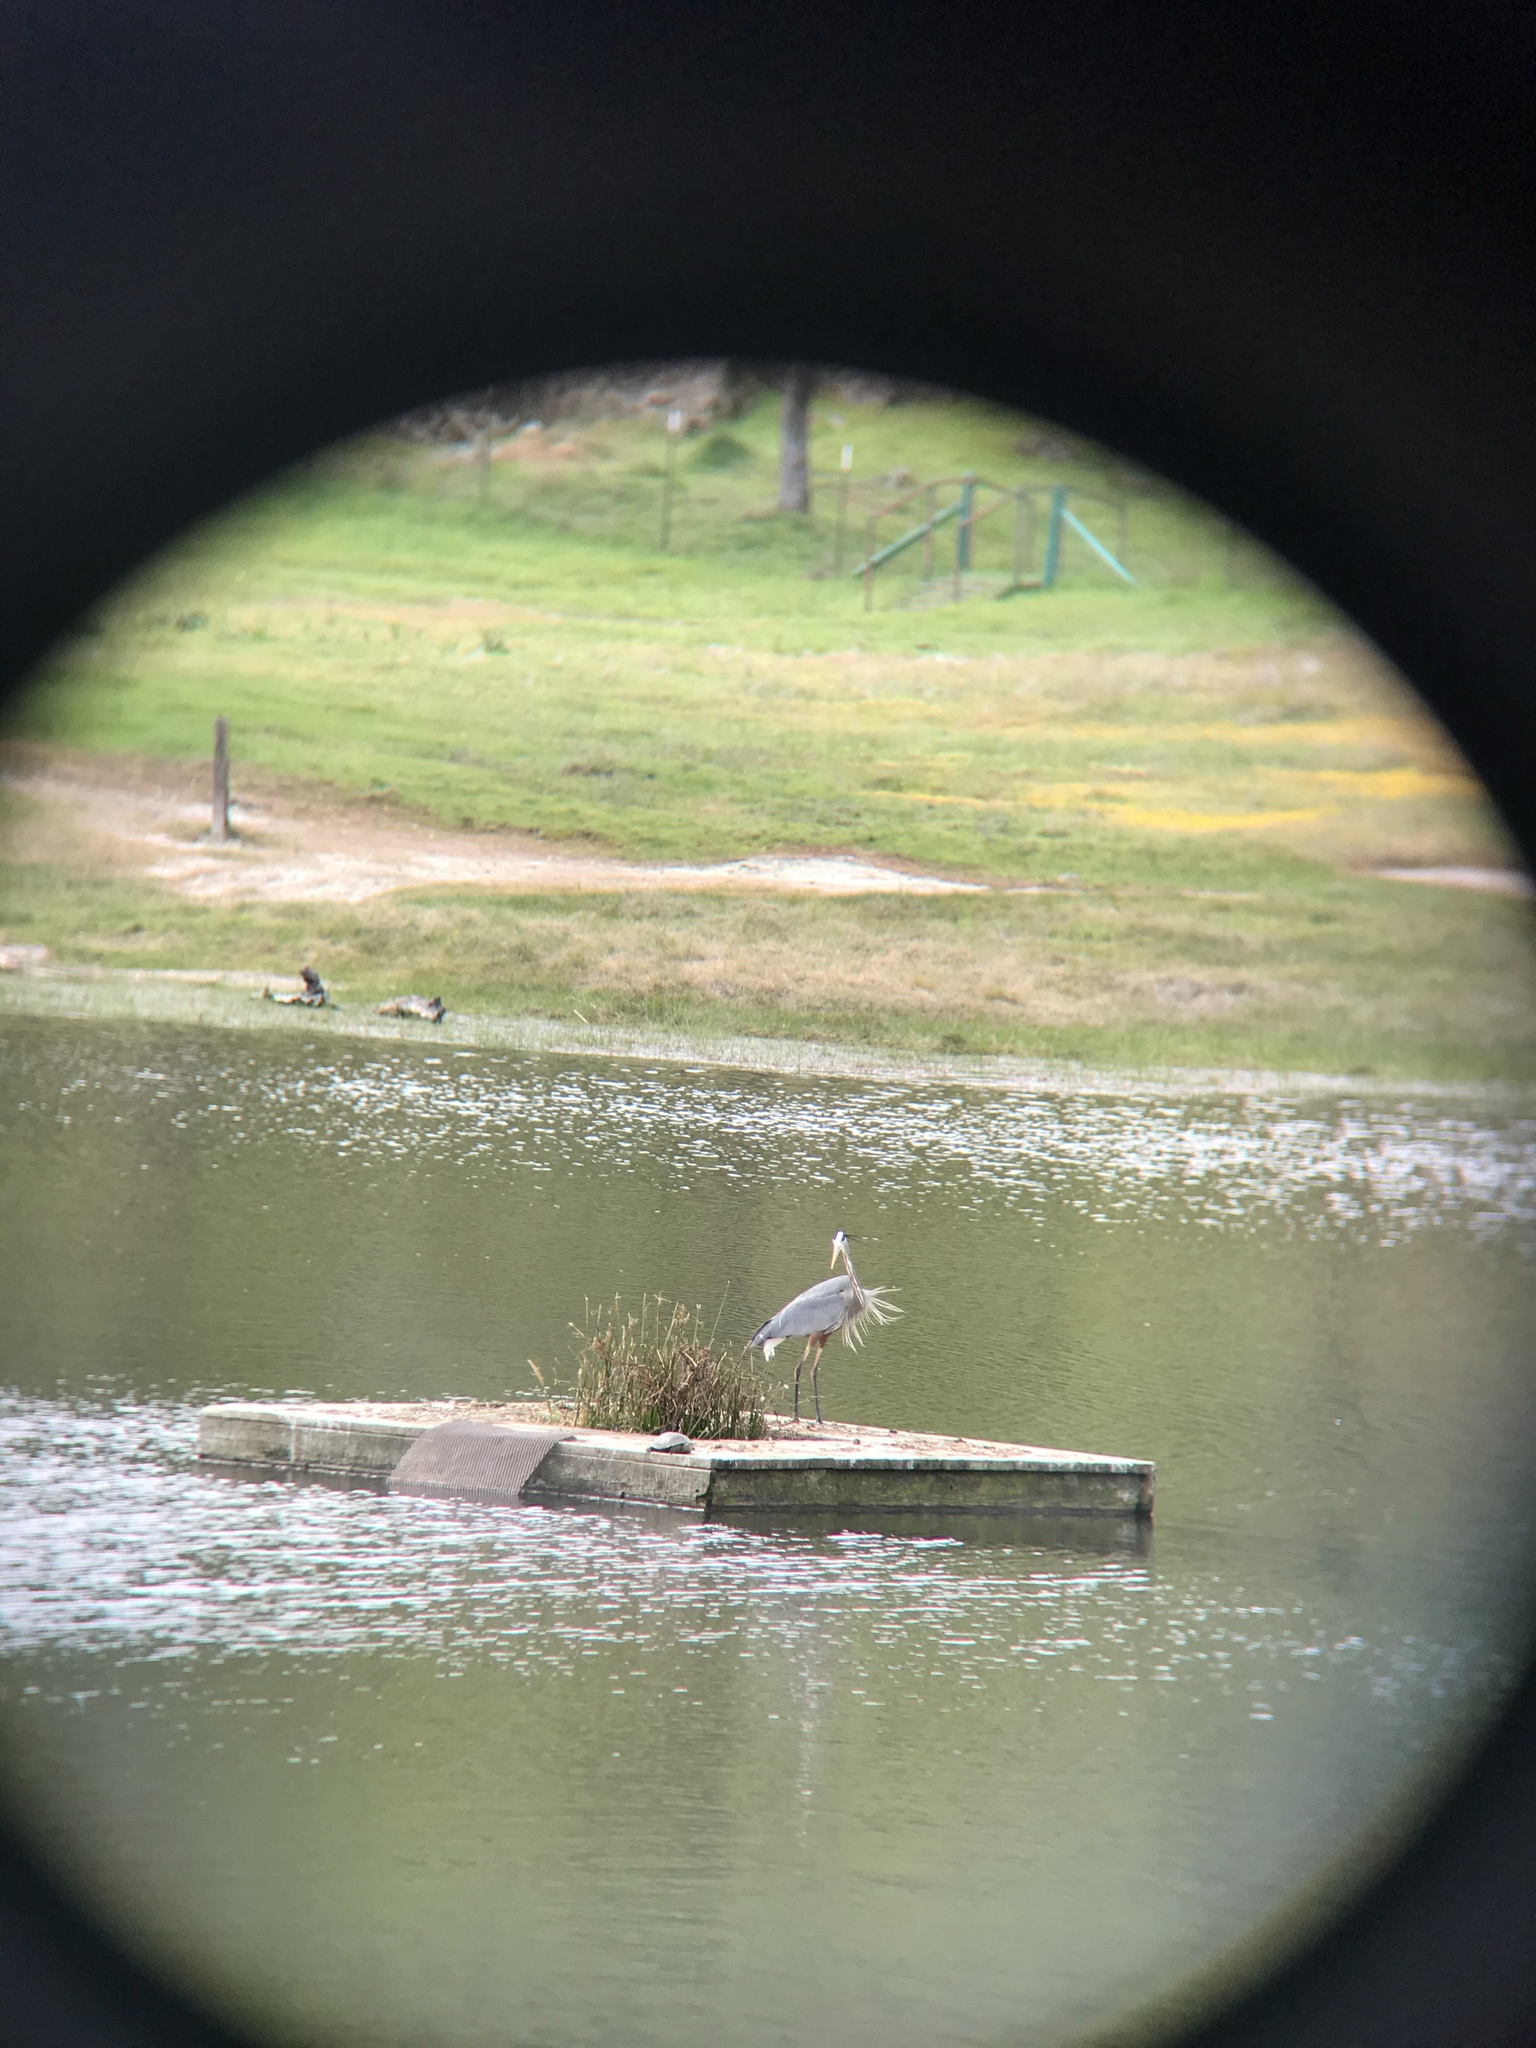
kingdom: Animalia
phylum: Chordata
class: Aves
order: Pelecaniformes
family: Ardeidae
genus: Ardea
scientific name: Ardea herodias
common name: Great blue heron
